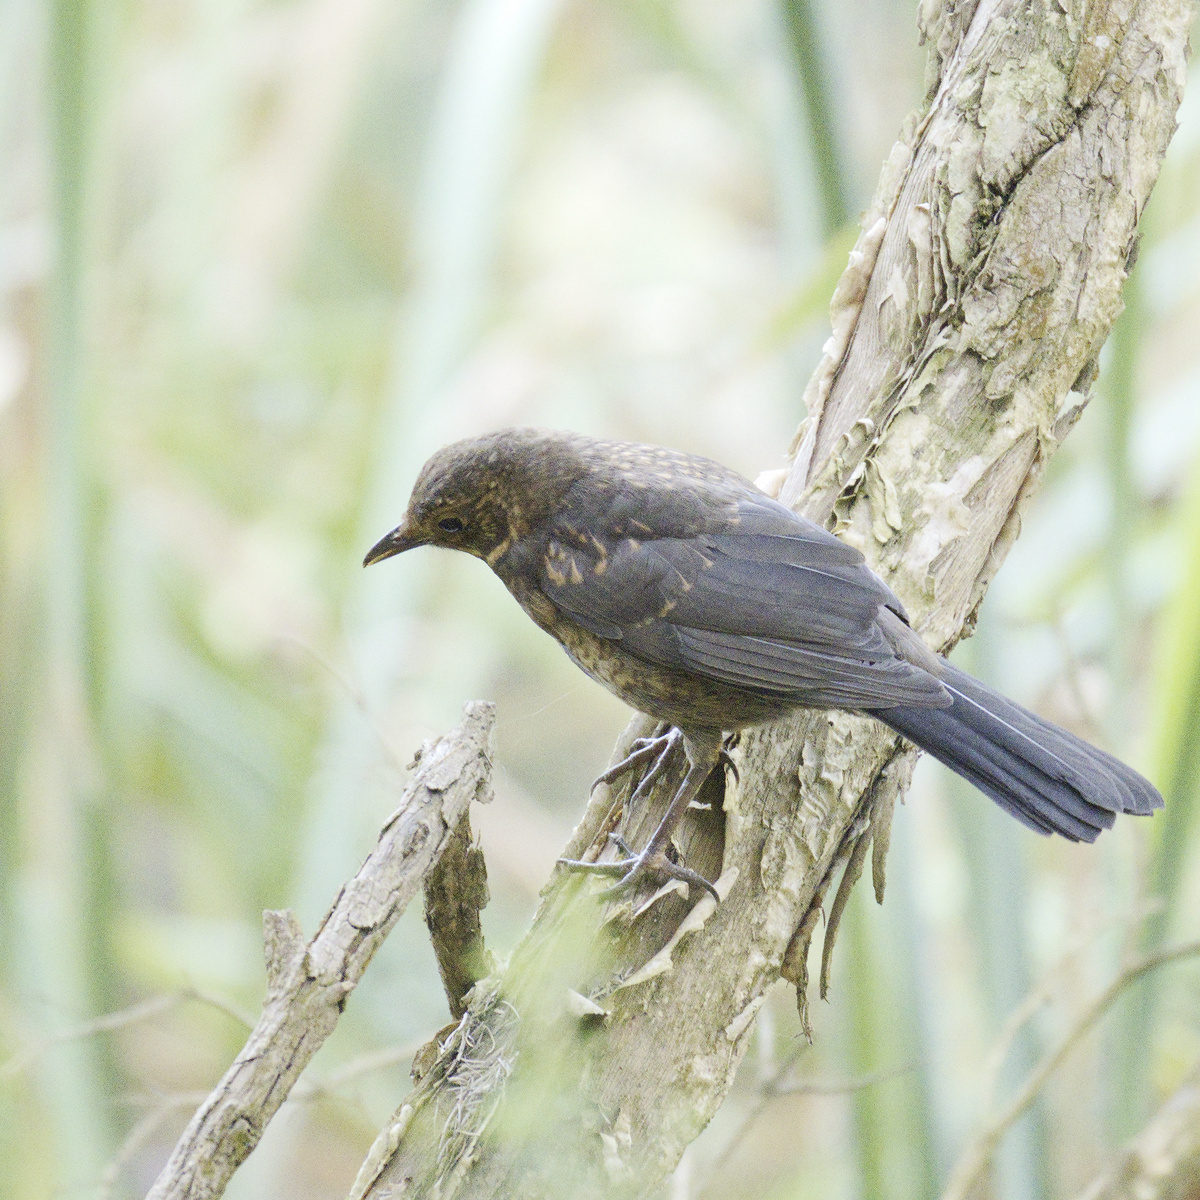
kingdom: Animalia
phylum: Chordata
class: Aves
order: Passeriformes
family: Turdidae
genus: Turdus
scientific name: Turdus merula
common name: Common blackbird
